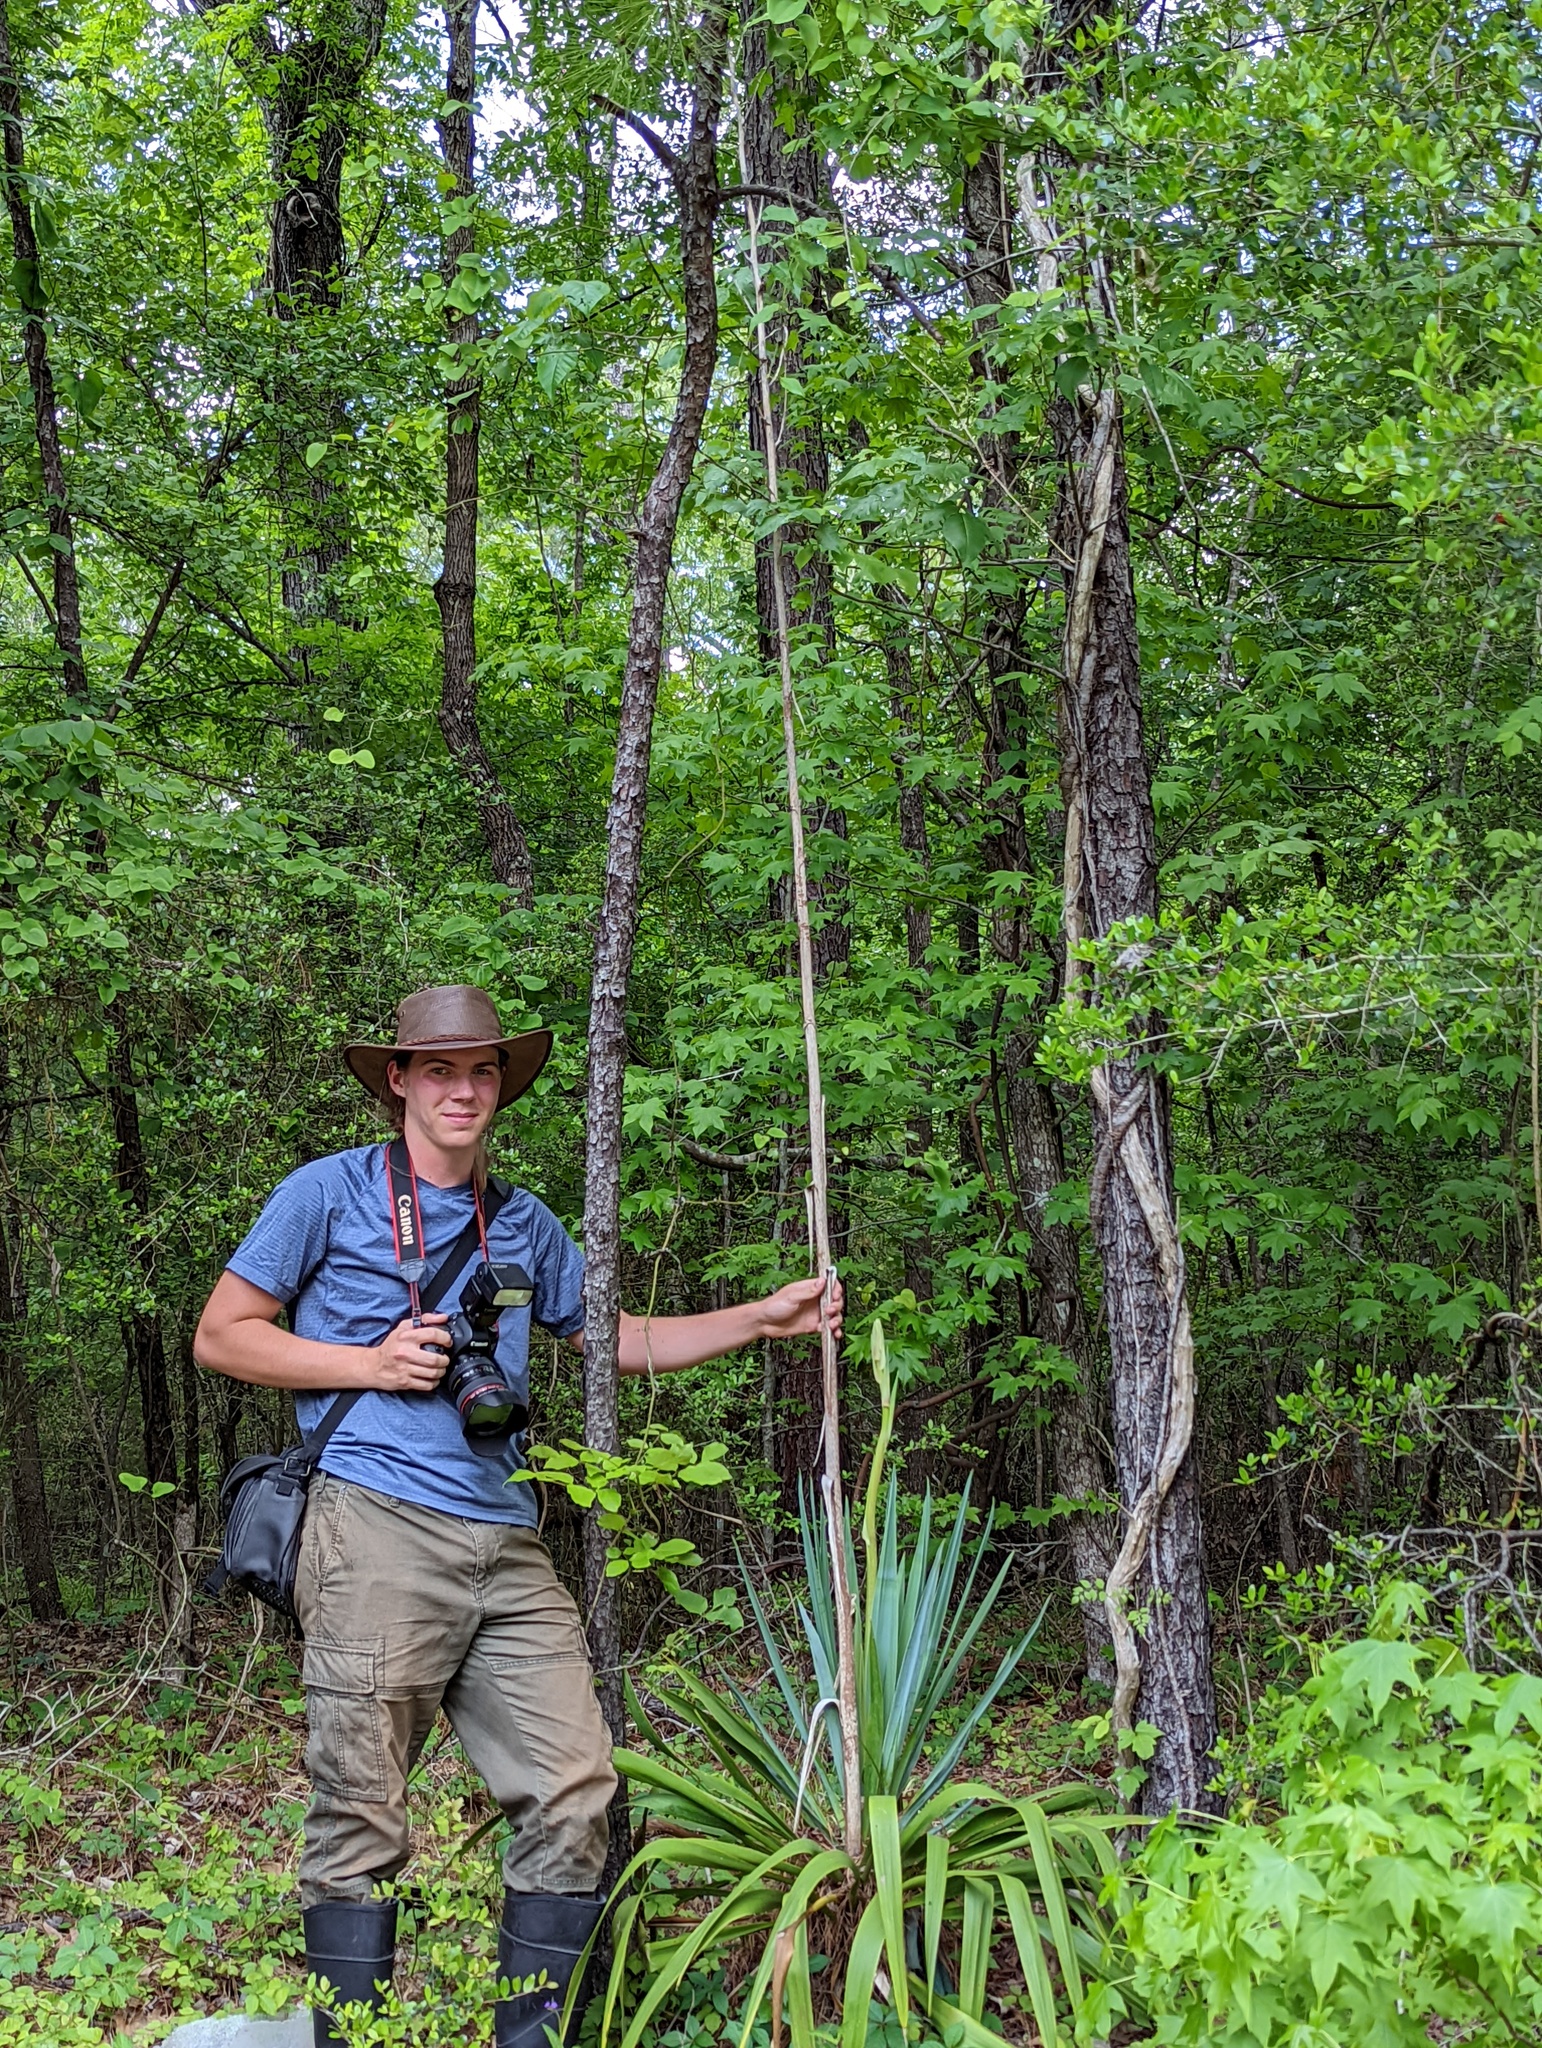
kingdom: Plantae
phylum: Tracheophyta
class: Liliopsida
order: Asparagales
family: Asparagaceae
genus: Yucca
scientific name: Yucca cernua
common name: Nodding yucca
